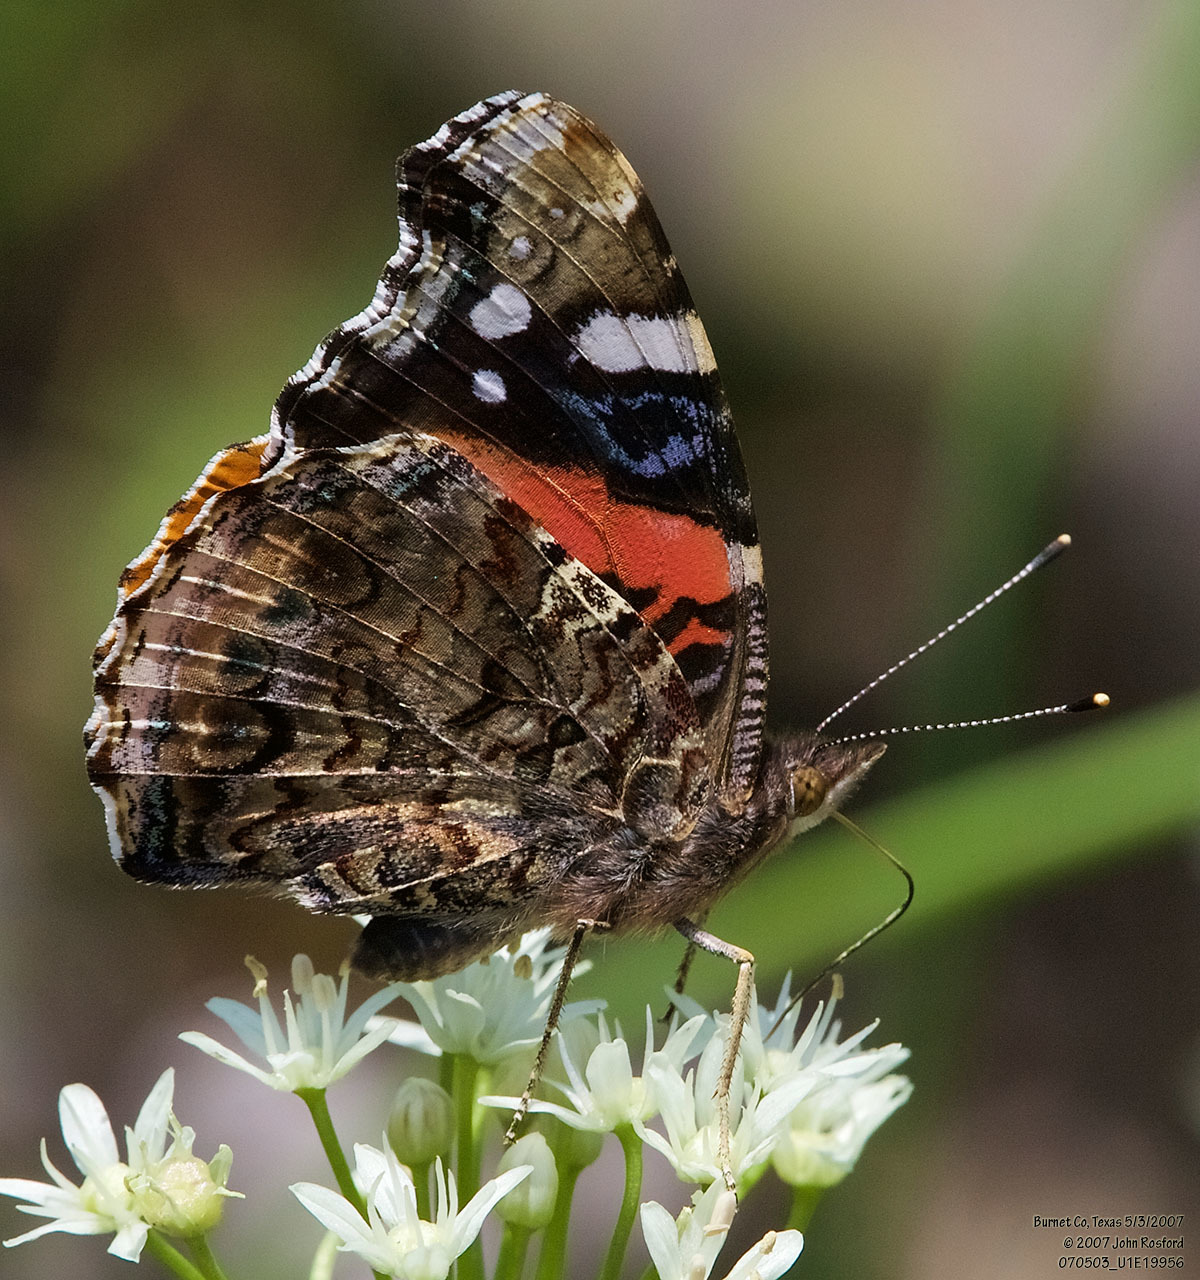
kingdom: Animalia
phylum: Arthropoda
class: Insecta
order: Lepidoptera
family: Nymphalidae
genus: Vanessa
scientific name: Vanessa atalanta
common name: Red admiral
